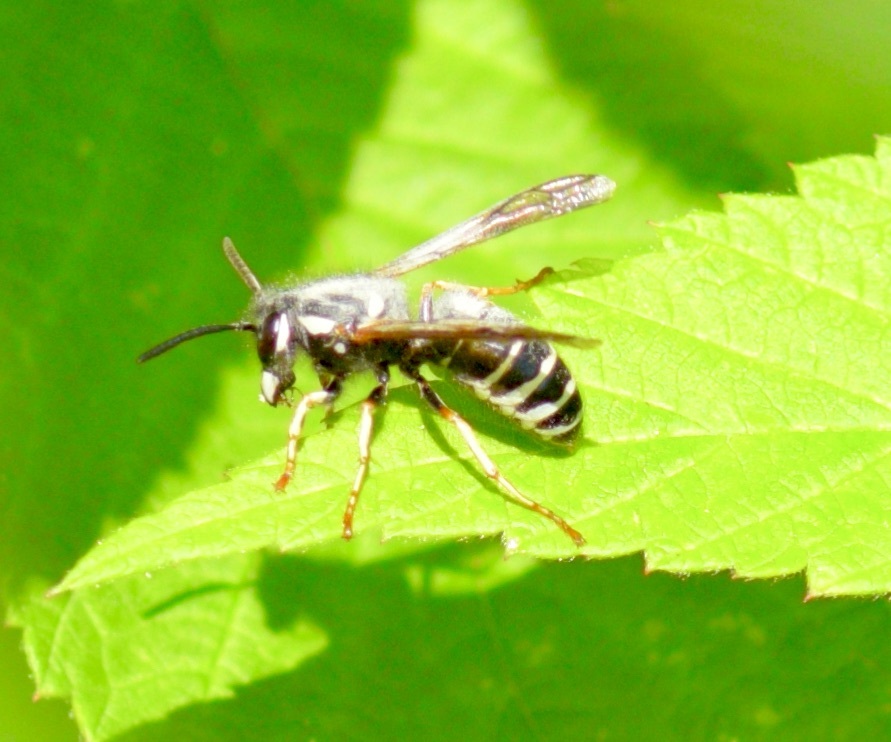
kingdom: Animalia
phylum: Arthropoda
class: Insecta
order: Hymenoptera
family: Vespidae
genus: Vespula
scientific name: Vespula consobrina
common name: Blackjacket
